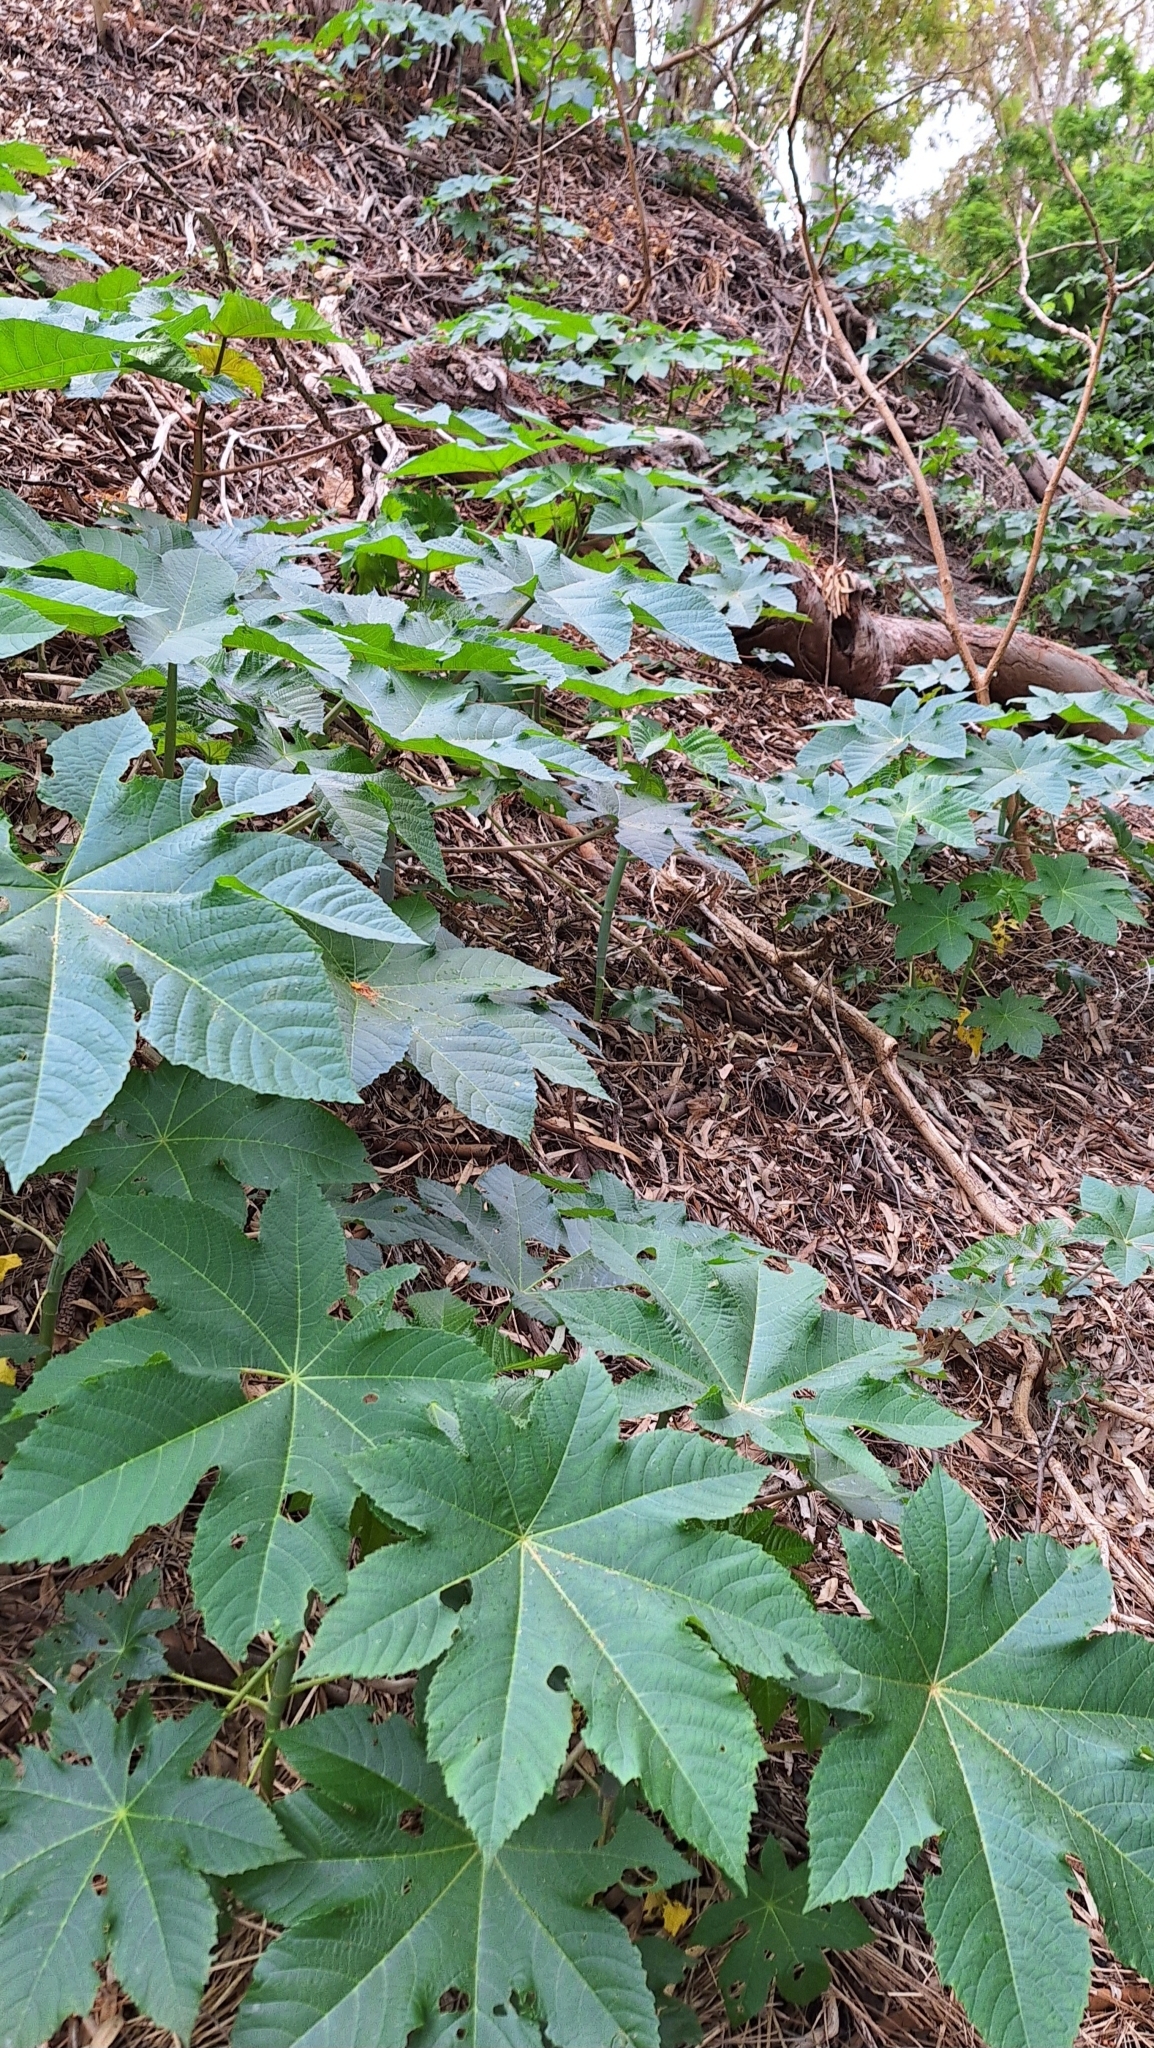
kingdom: Plantae
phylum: Tracheophyta
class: Magnoliopsida
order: Malpighiales
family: Euphorbiaceae
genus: Ricinus
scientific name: Ricinus communis
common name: Castor-oil-plant
